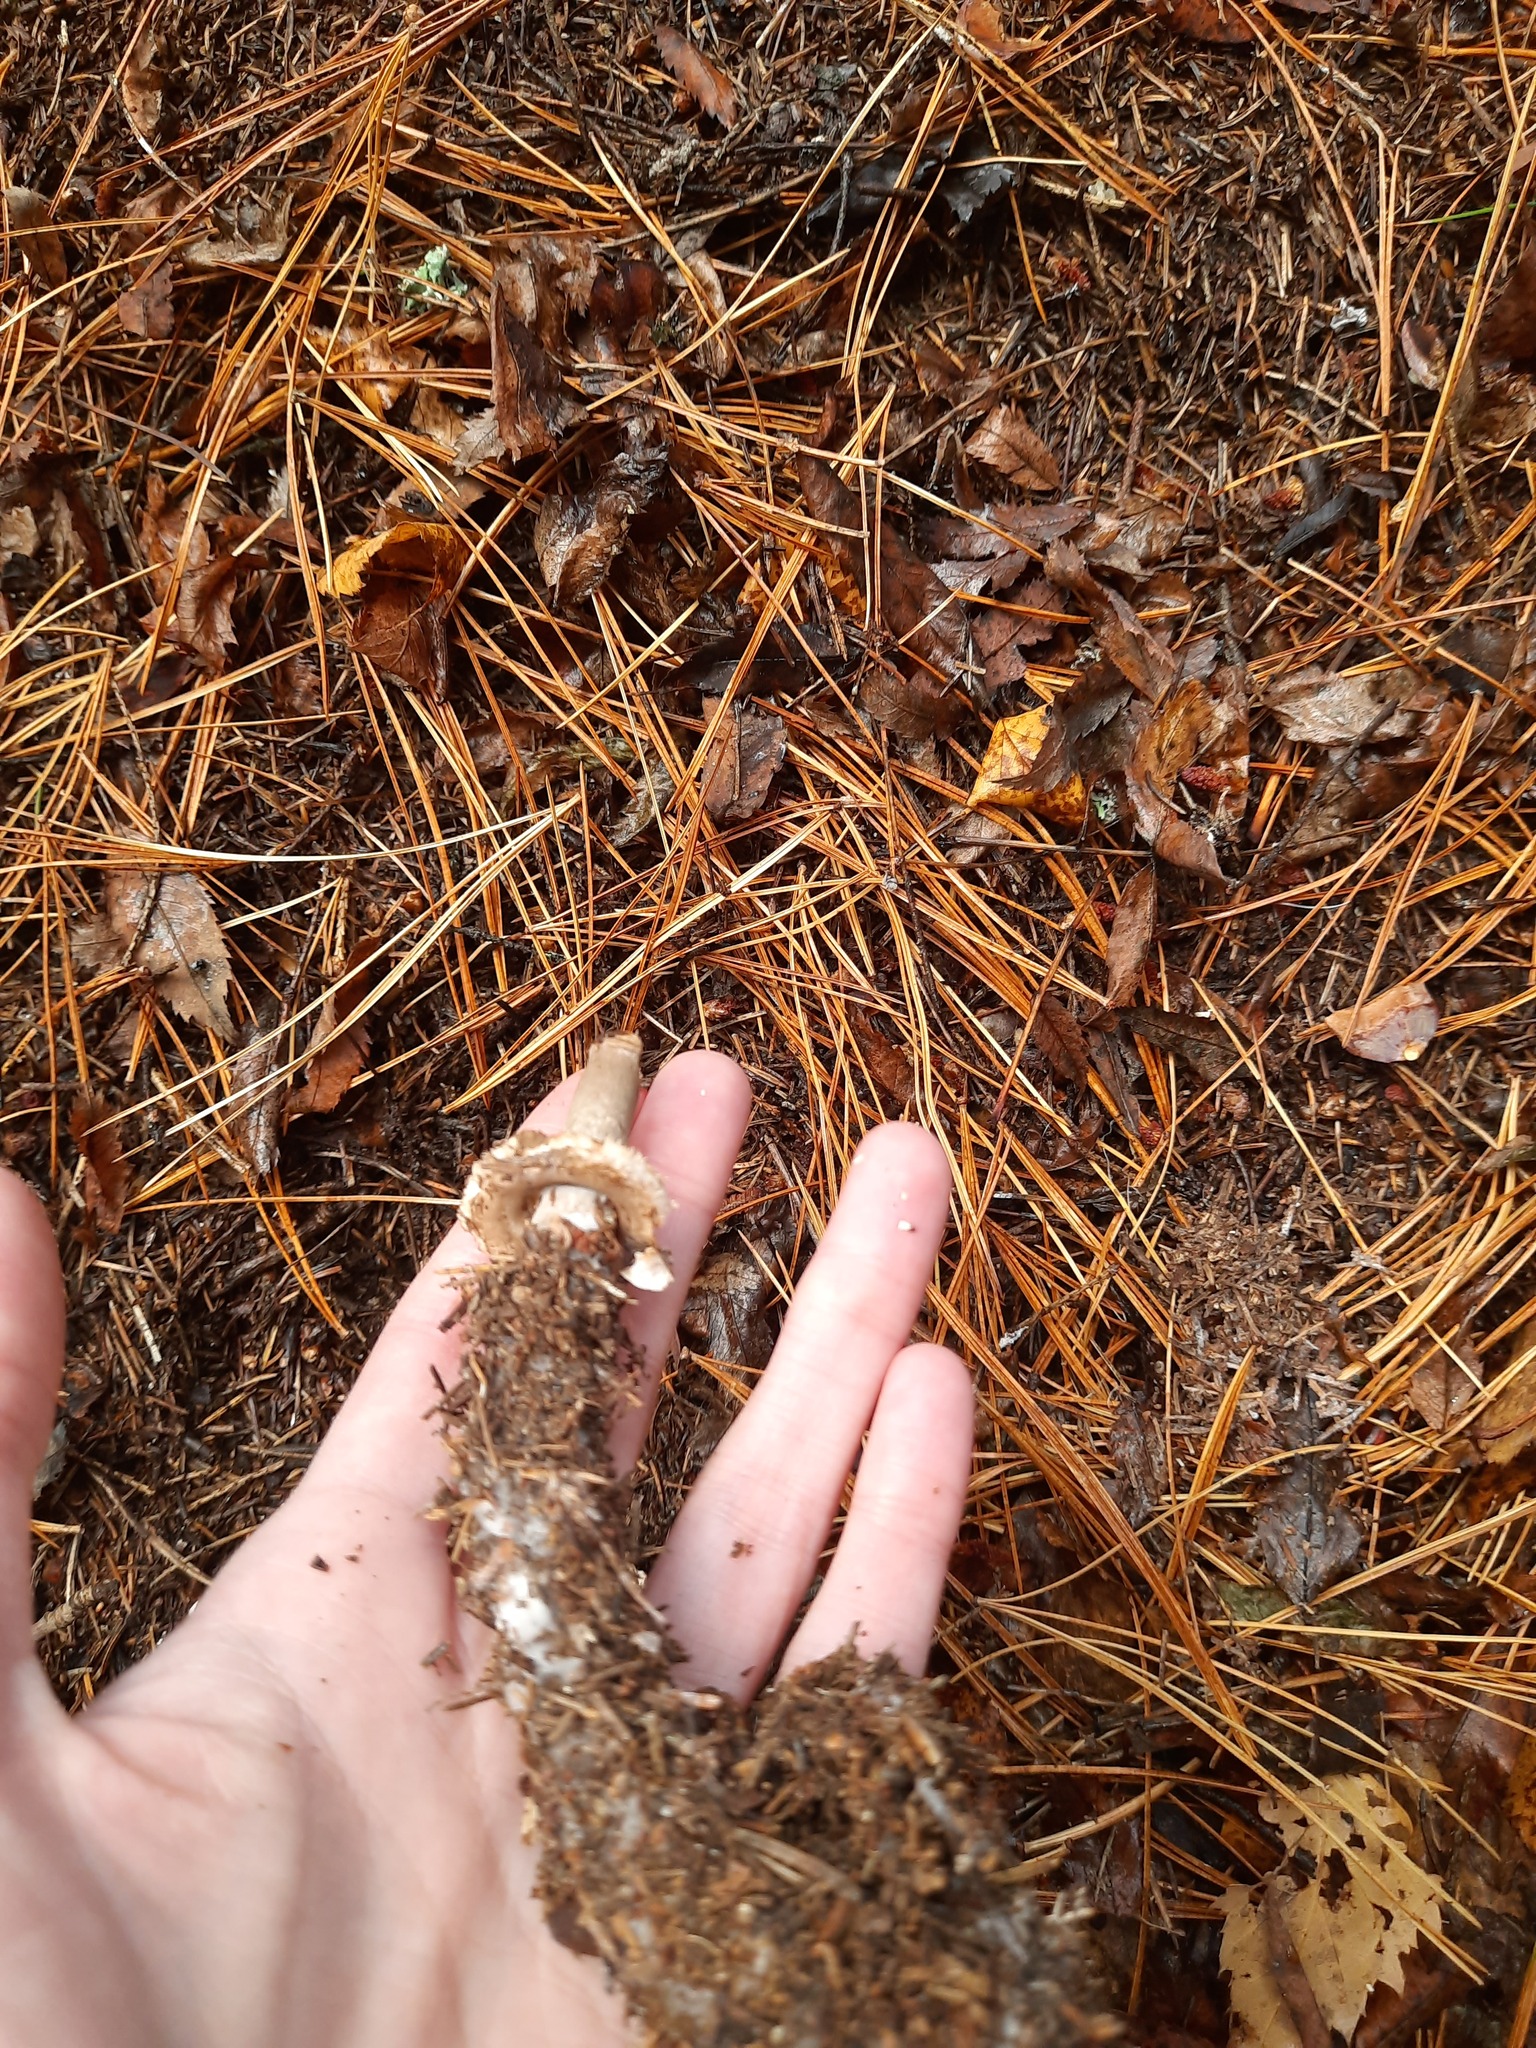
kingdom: Fungi
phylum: Basidiomycota
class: Agaricomycetes
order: Agaricales
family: Agaricaceae
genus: Chlorophyllum
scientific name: Chlorophyllum rhacodes
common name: Shaggy parasol
